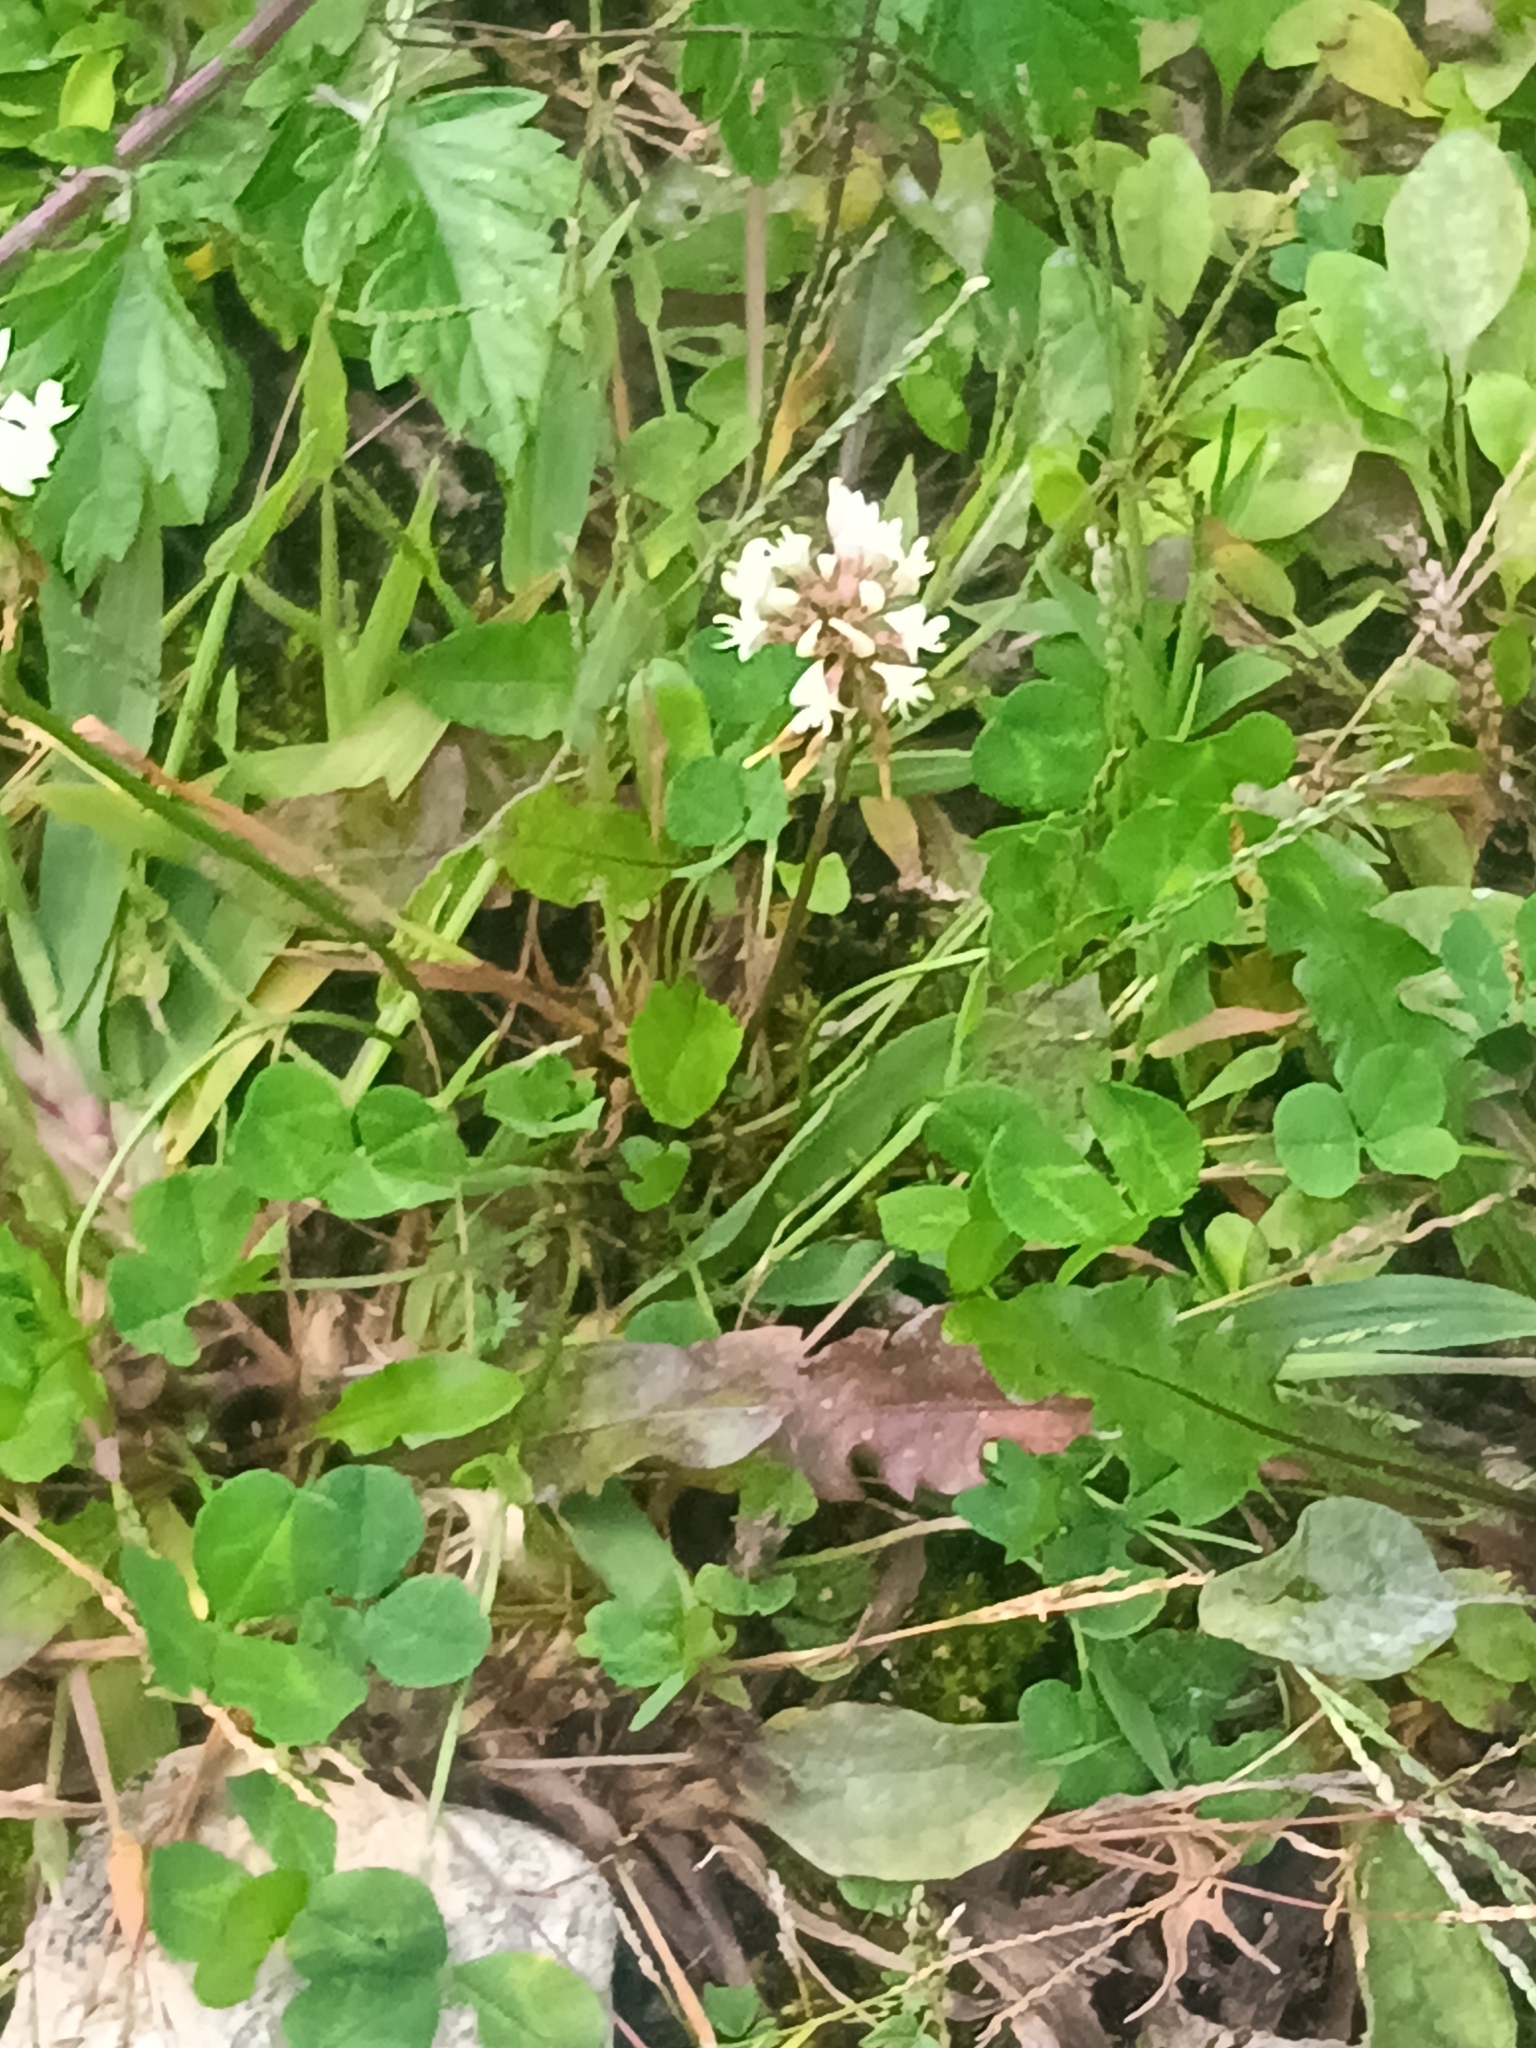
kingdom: Plantae
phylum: Tracheophyta
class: Magnoliopsida
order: Fabales
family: Fabaceae
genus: Trifolium
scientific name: Trifolium repens
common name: White clover
